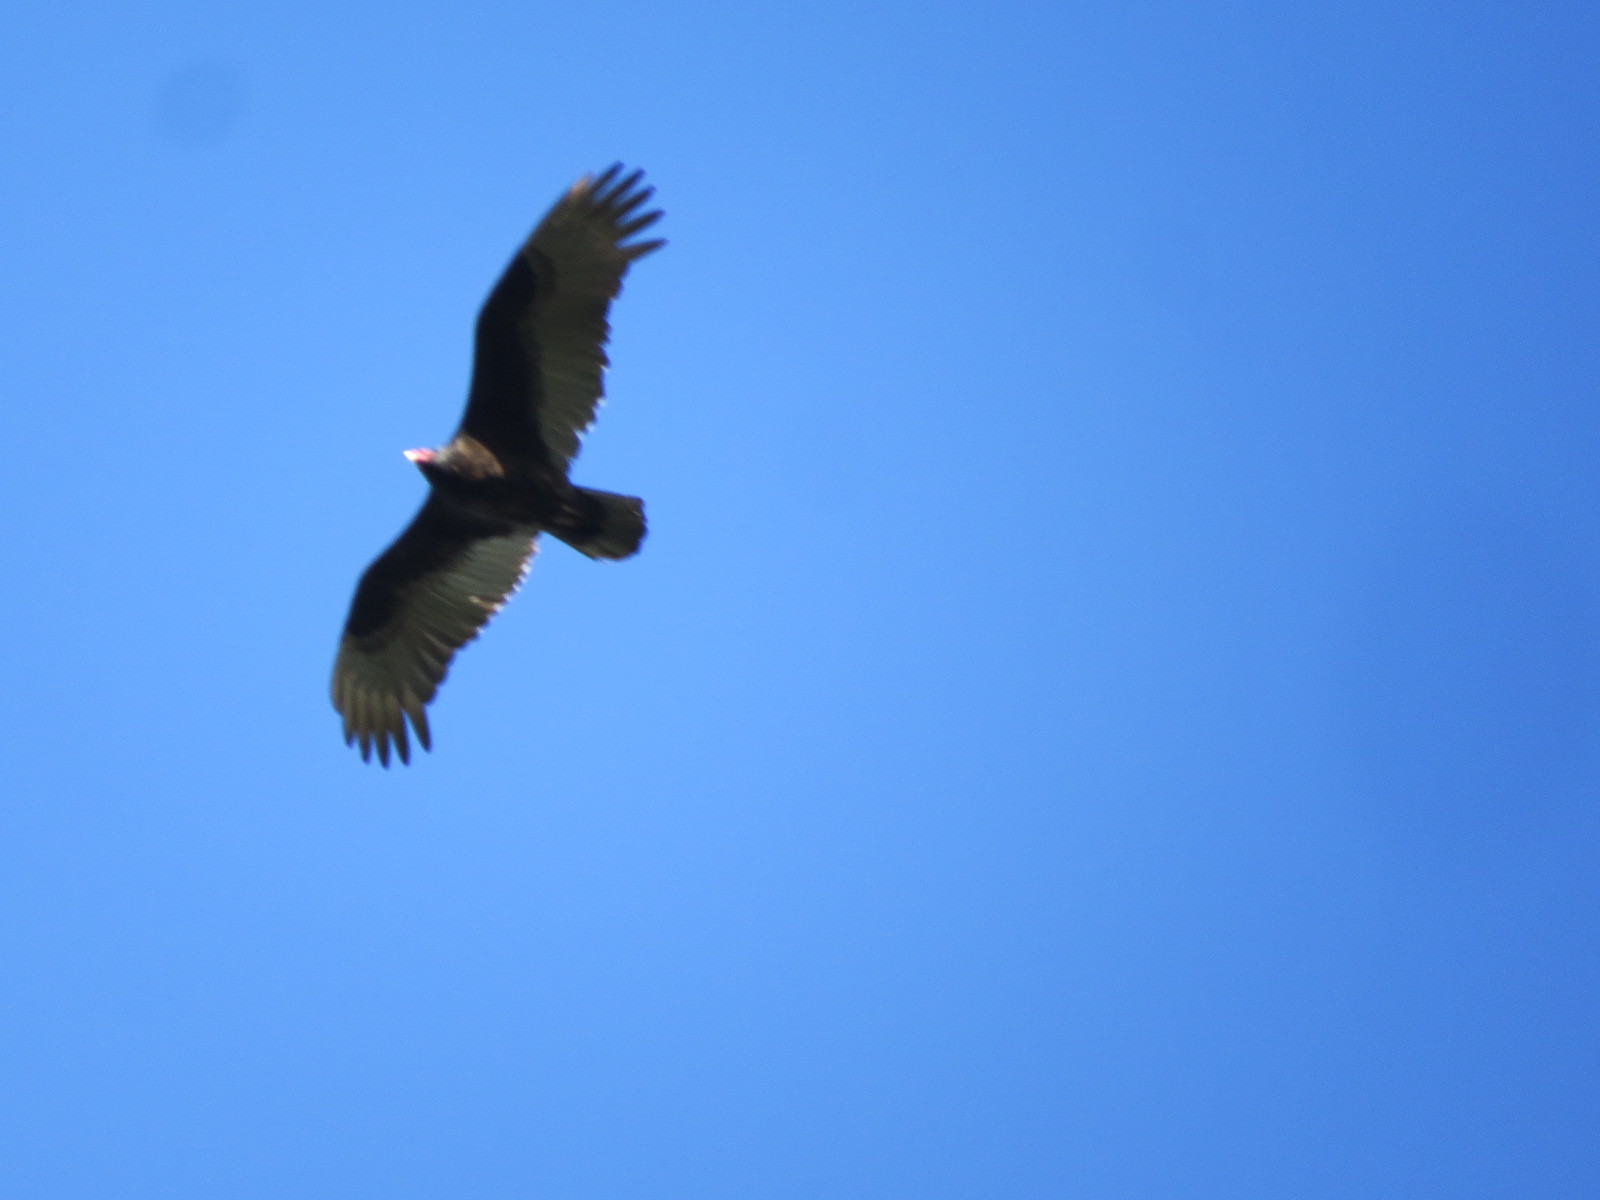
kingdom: Animalia
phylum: Chordata
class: Aves
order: Accipitriformes
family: Cathartidae
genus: Cathartes
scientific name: Cathartes aura
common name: Turkey vulture
